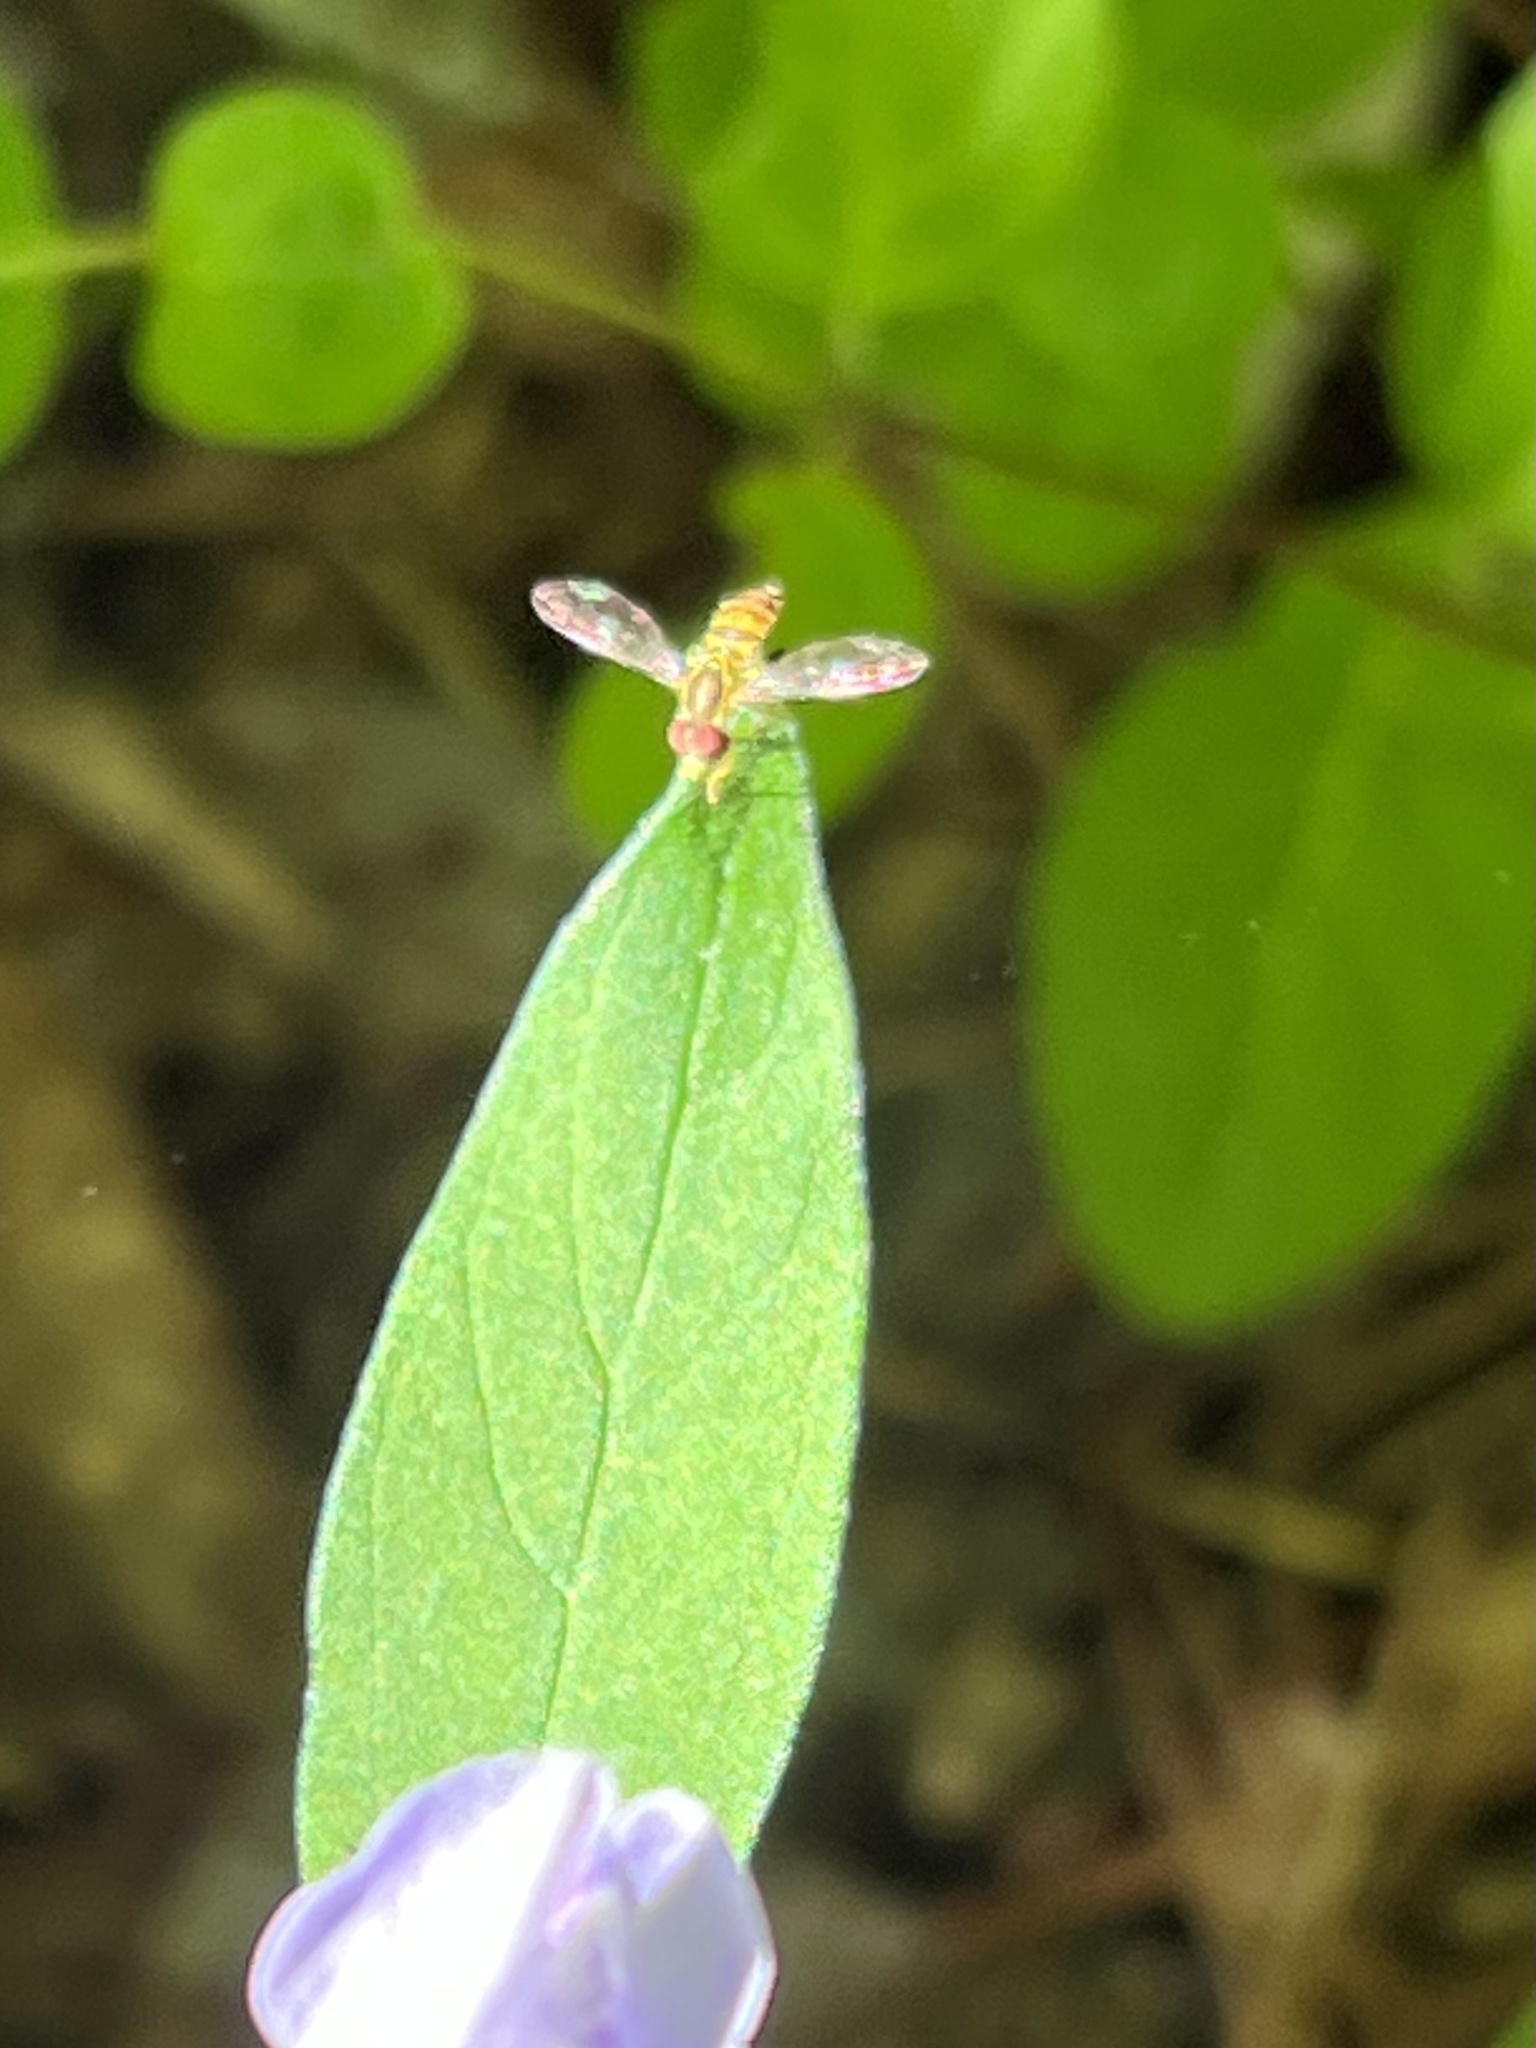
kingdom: Animalia
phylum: Arthropoda
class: Insecta
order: Diptera
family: Syrphidae
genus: Toxomerus
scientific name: Toxomerus geminatus
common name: Eastern calligrapher
